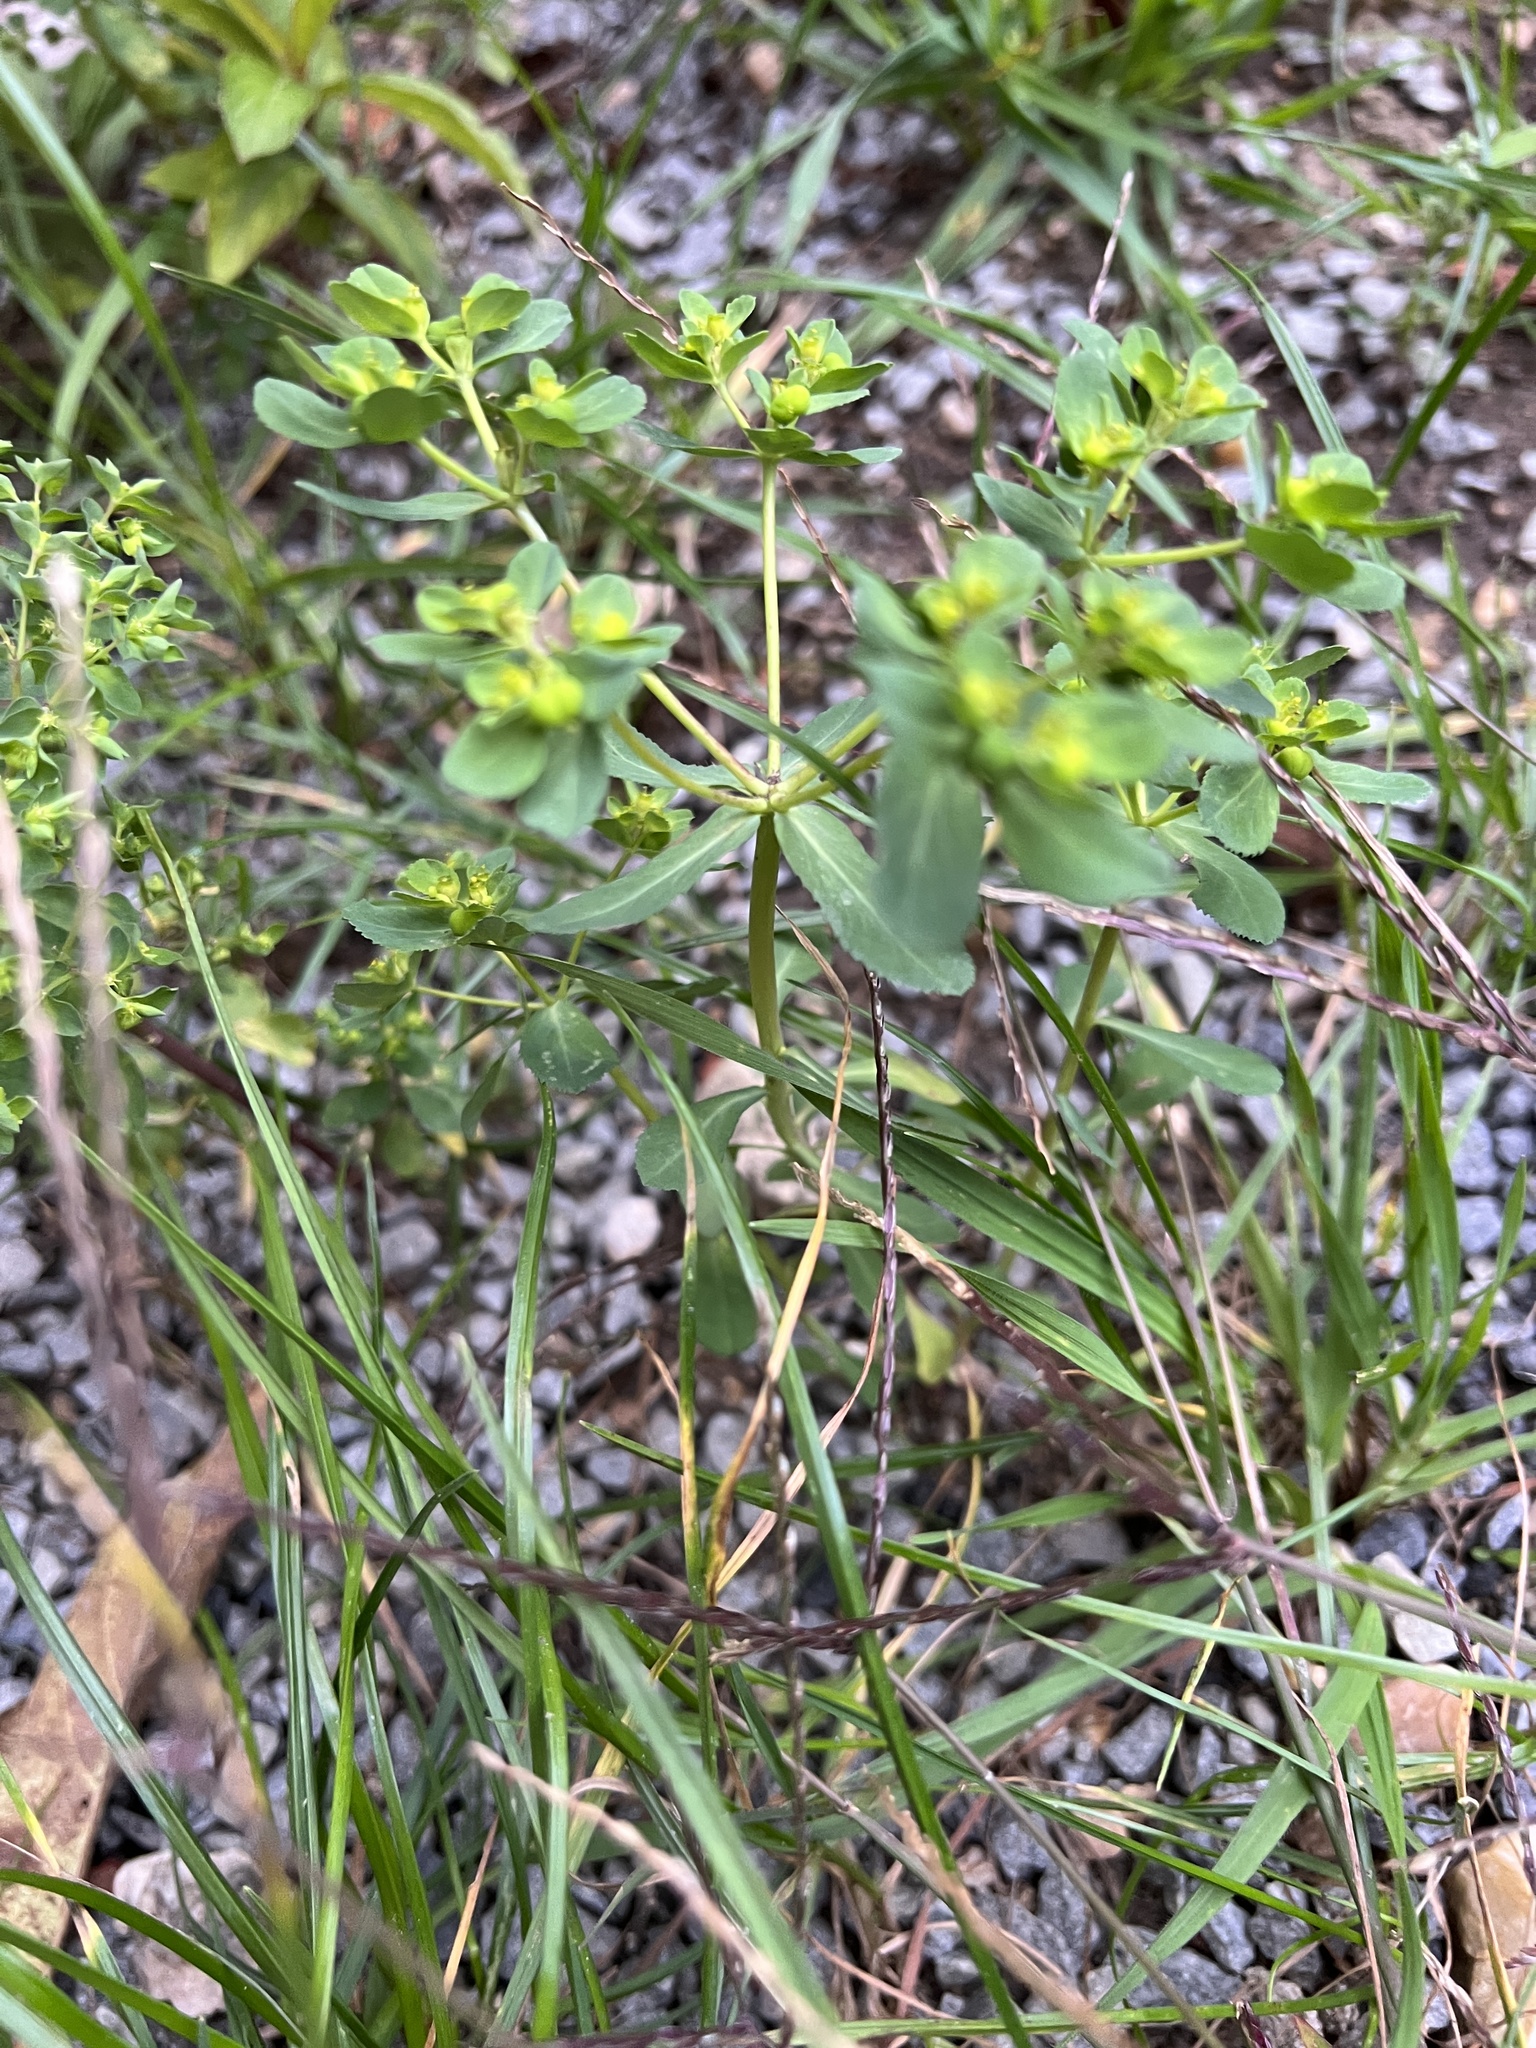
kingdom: Plantae
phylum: Tracheophyta
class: Magnoliopsida
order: Malpighiales
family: Euphorbiaceae
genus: Euphorbia
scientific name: Euphorbia helioscopia
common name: Sun spurge
